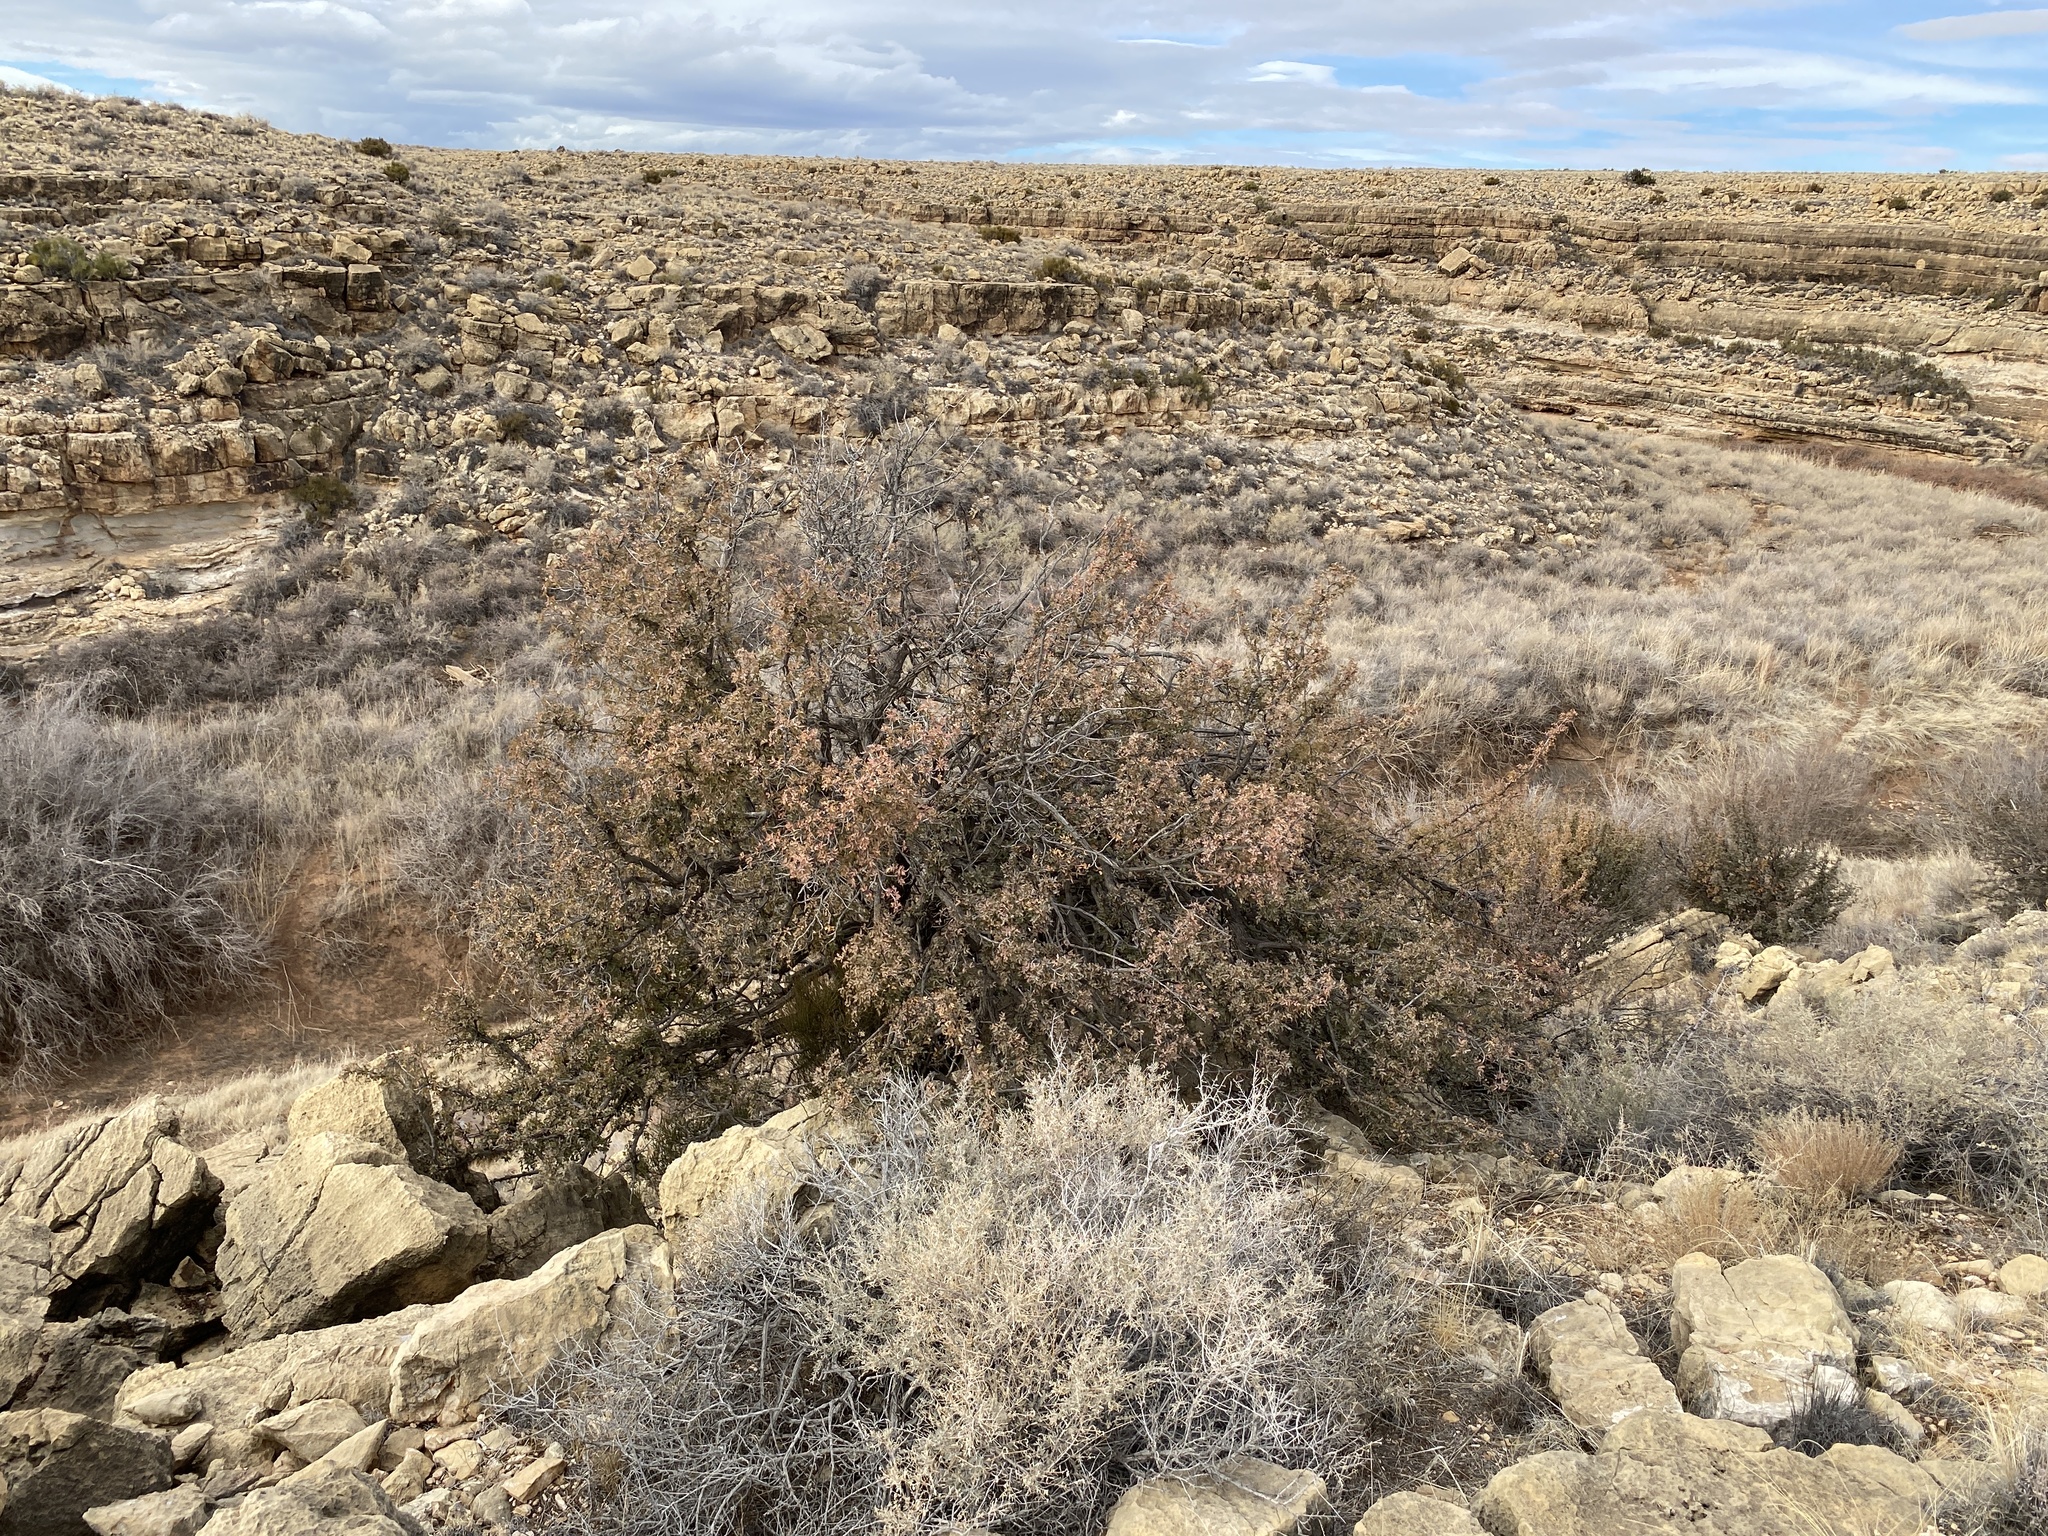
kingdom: Plantae
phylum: Tracheophyta
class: Magnoliopsida
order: Ranunculales
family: Berberidaceae
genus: Alloberberis
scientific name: Alloberberis haematocarpa
